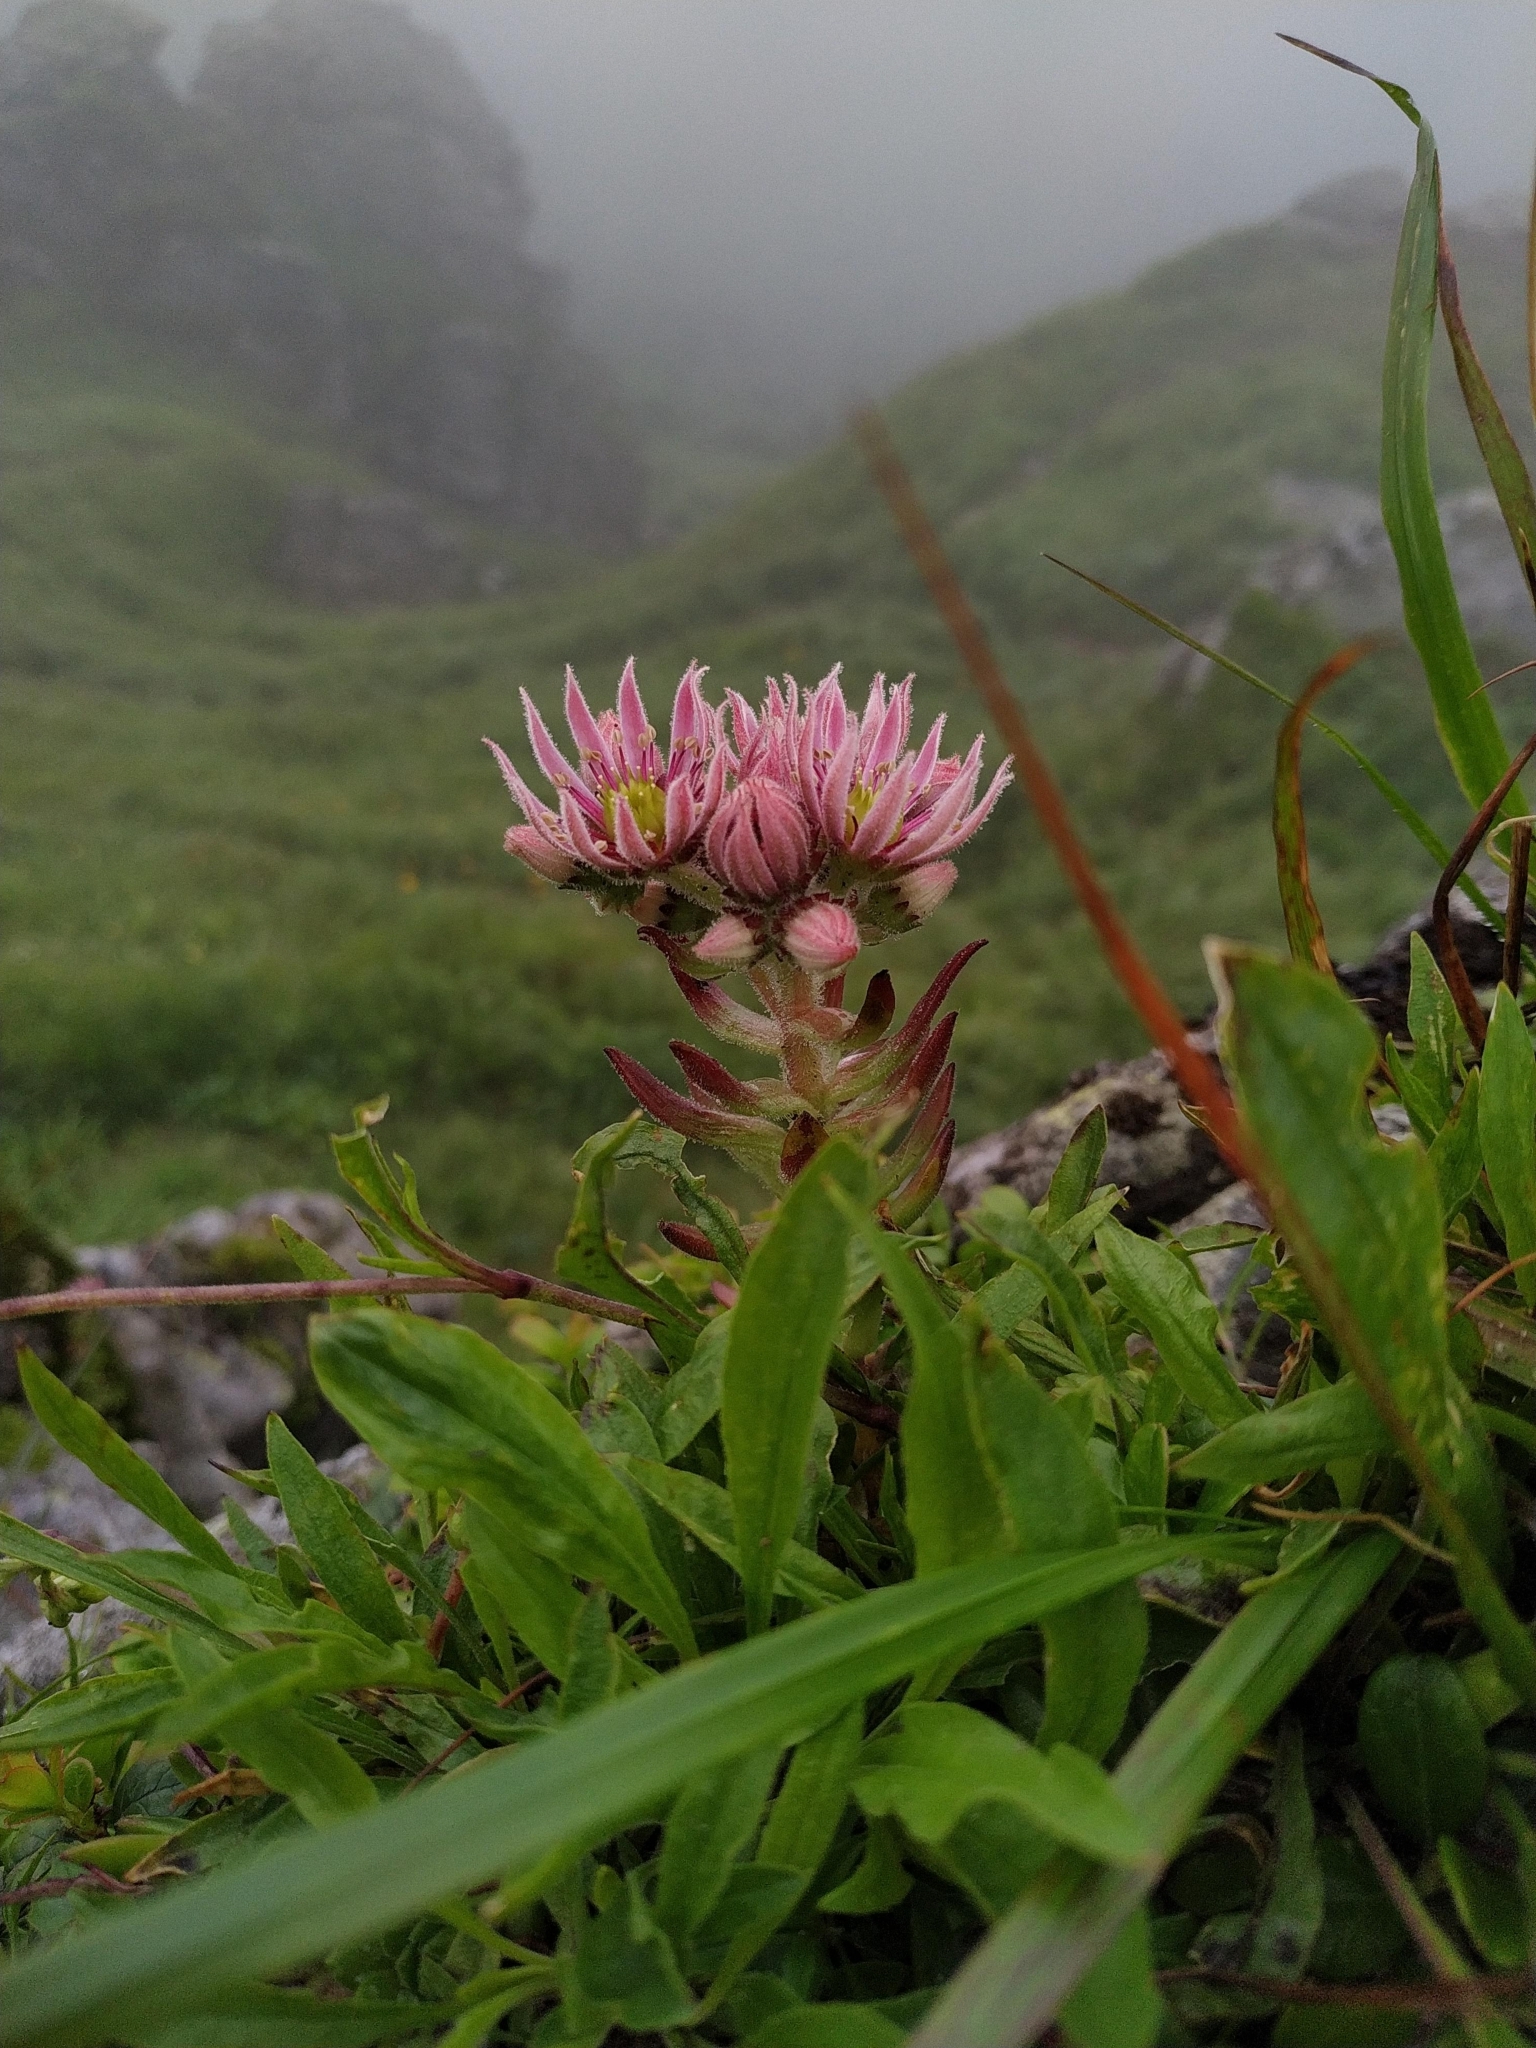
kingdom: Plantae
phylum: Tracheophyta
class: Magnoliopsida
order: Saxifragales
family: Crassulaceae
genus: Sempervivum
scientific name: Sempervivum montanum
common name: Mountain house-leek
